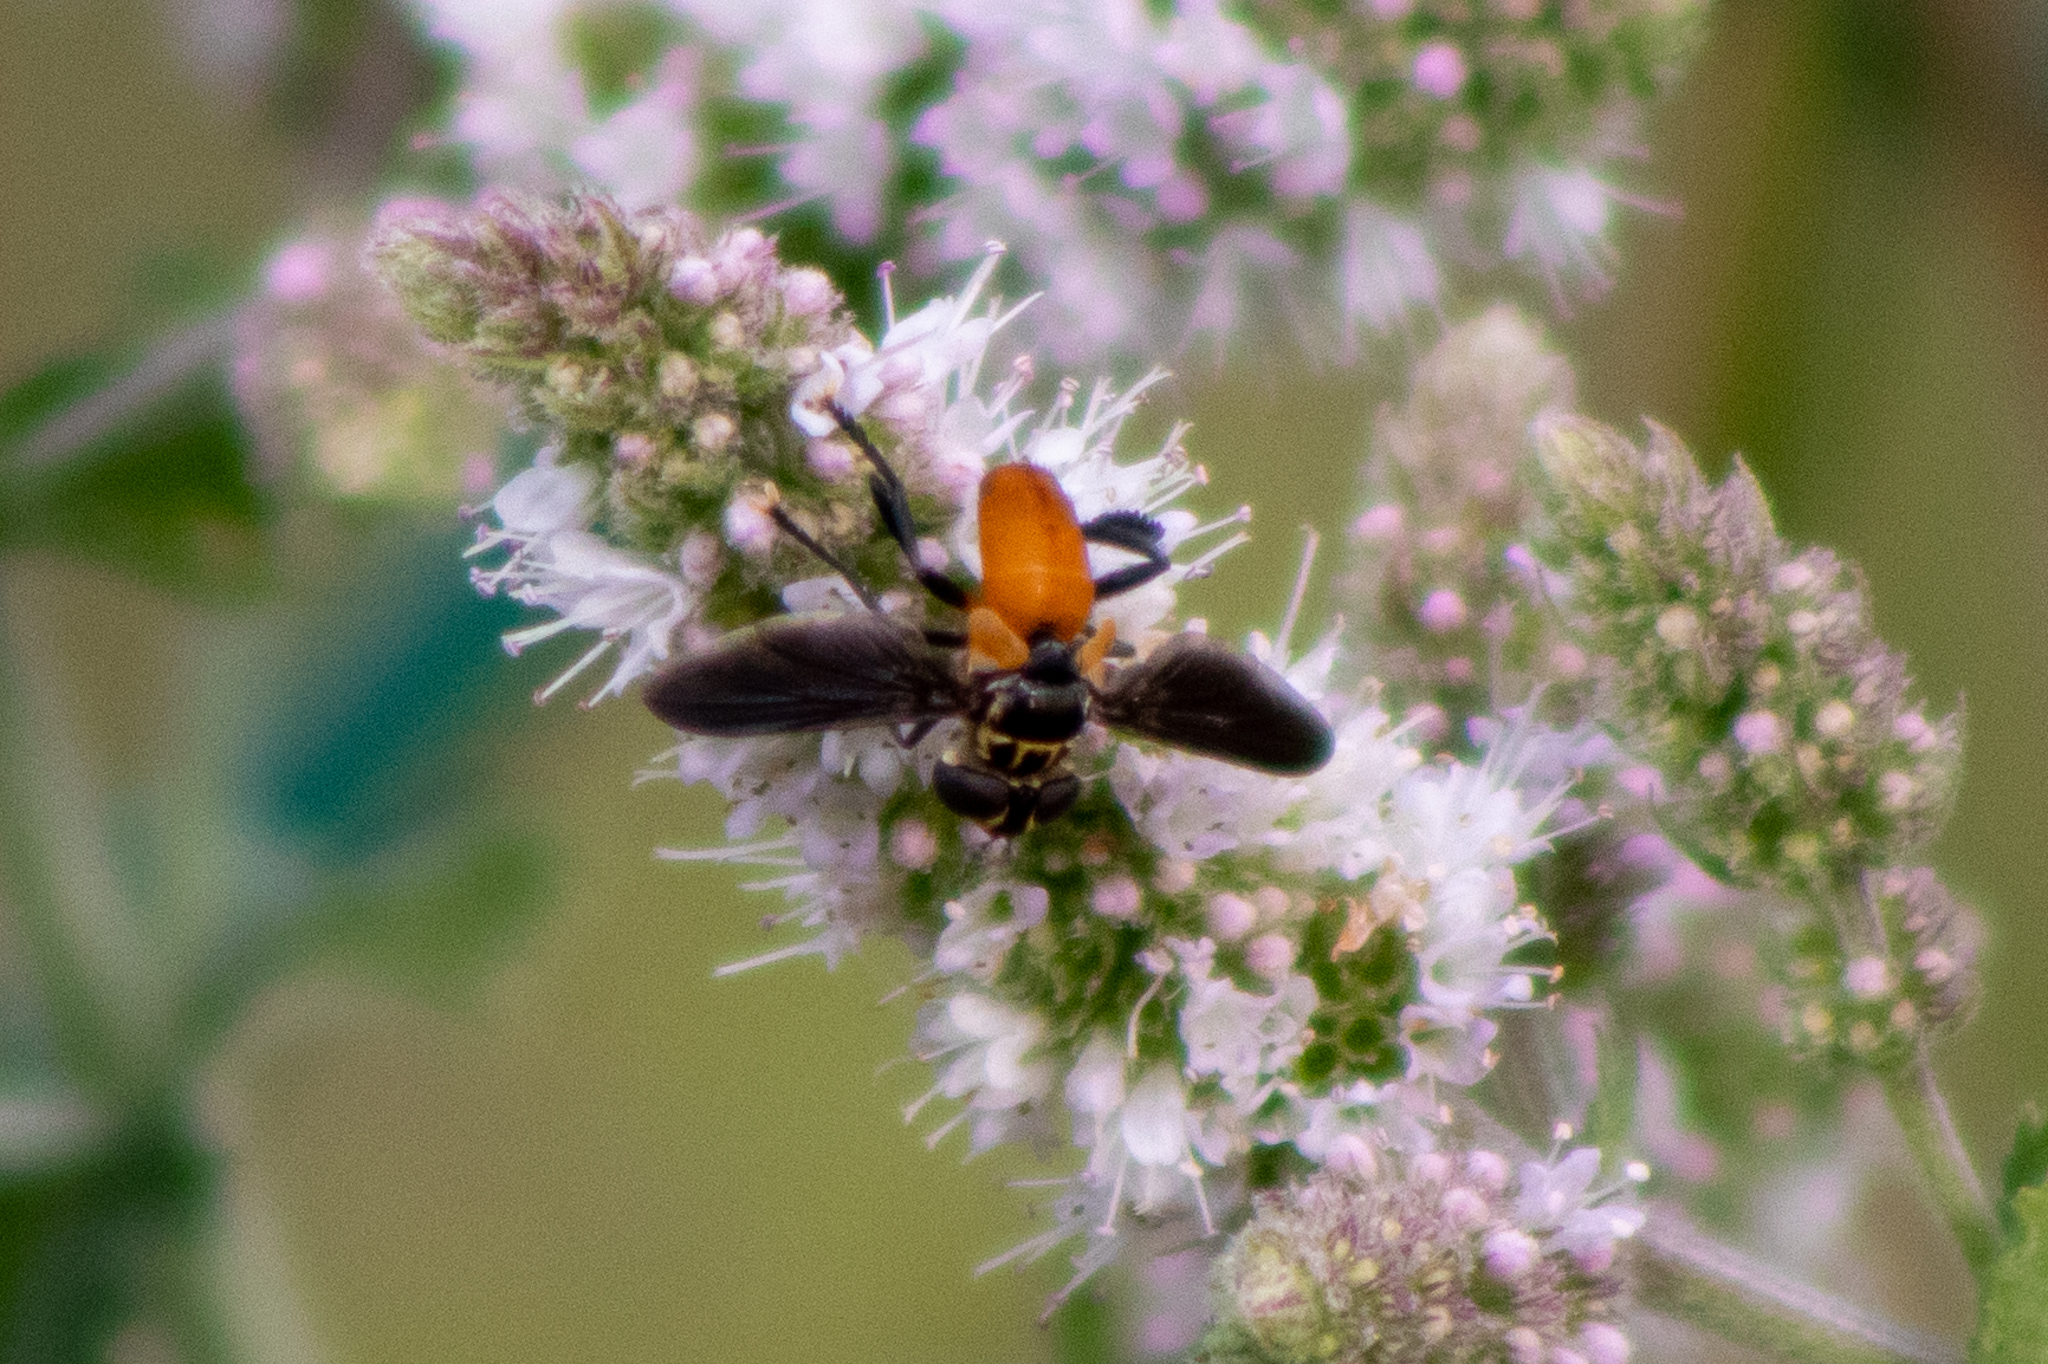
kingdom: Animalia
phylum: Arthropoda
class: Insecta
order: Diptera
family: Tachinidae
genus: Trichopoda
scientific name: Trichopoda pennipes
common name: Tachinid fly
